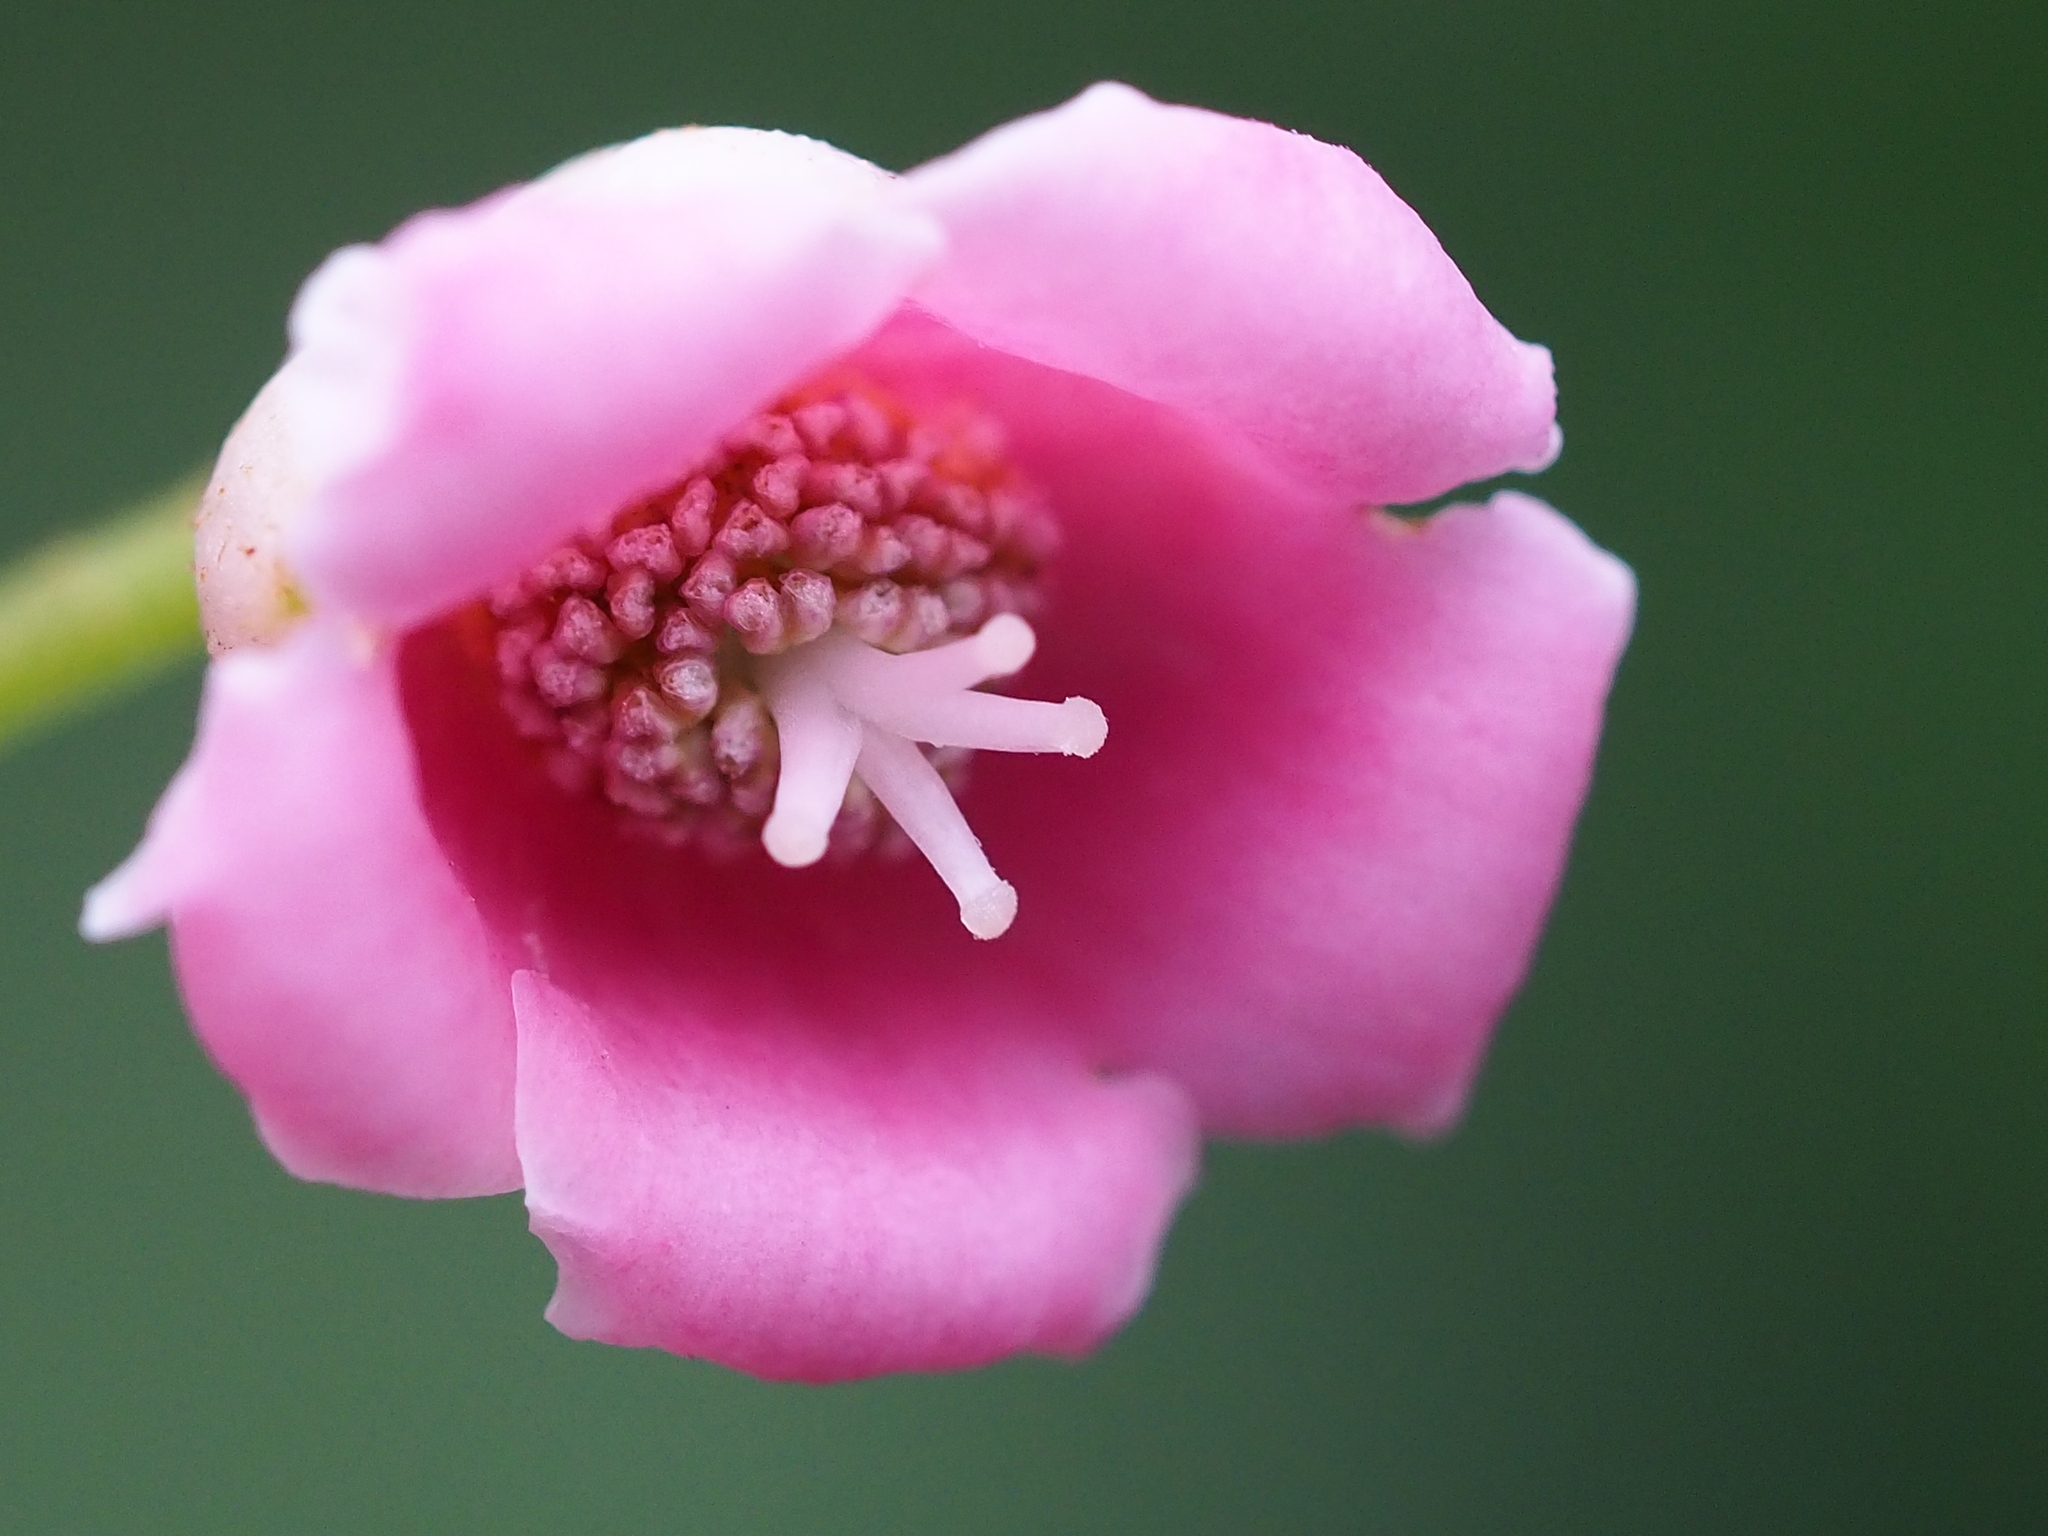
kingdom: Plantae
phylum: Tracheophyta
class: Magnoliopsida
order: Ericales
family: Actinidiaceae
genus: Saurauia
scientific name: Saurauia tristyla
